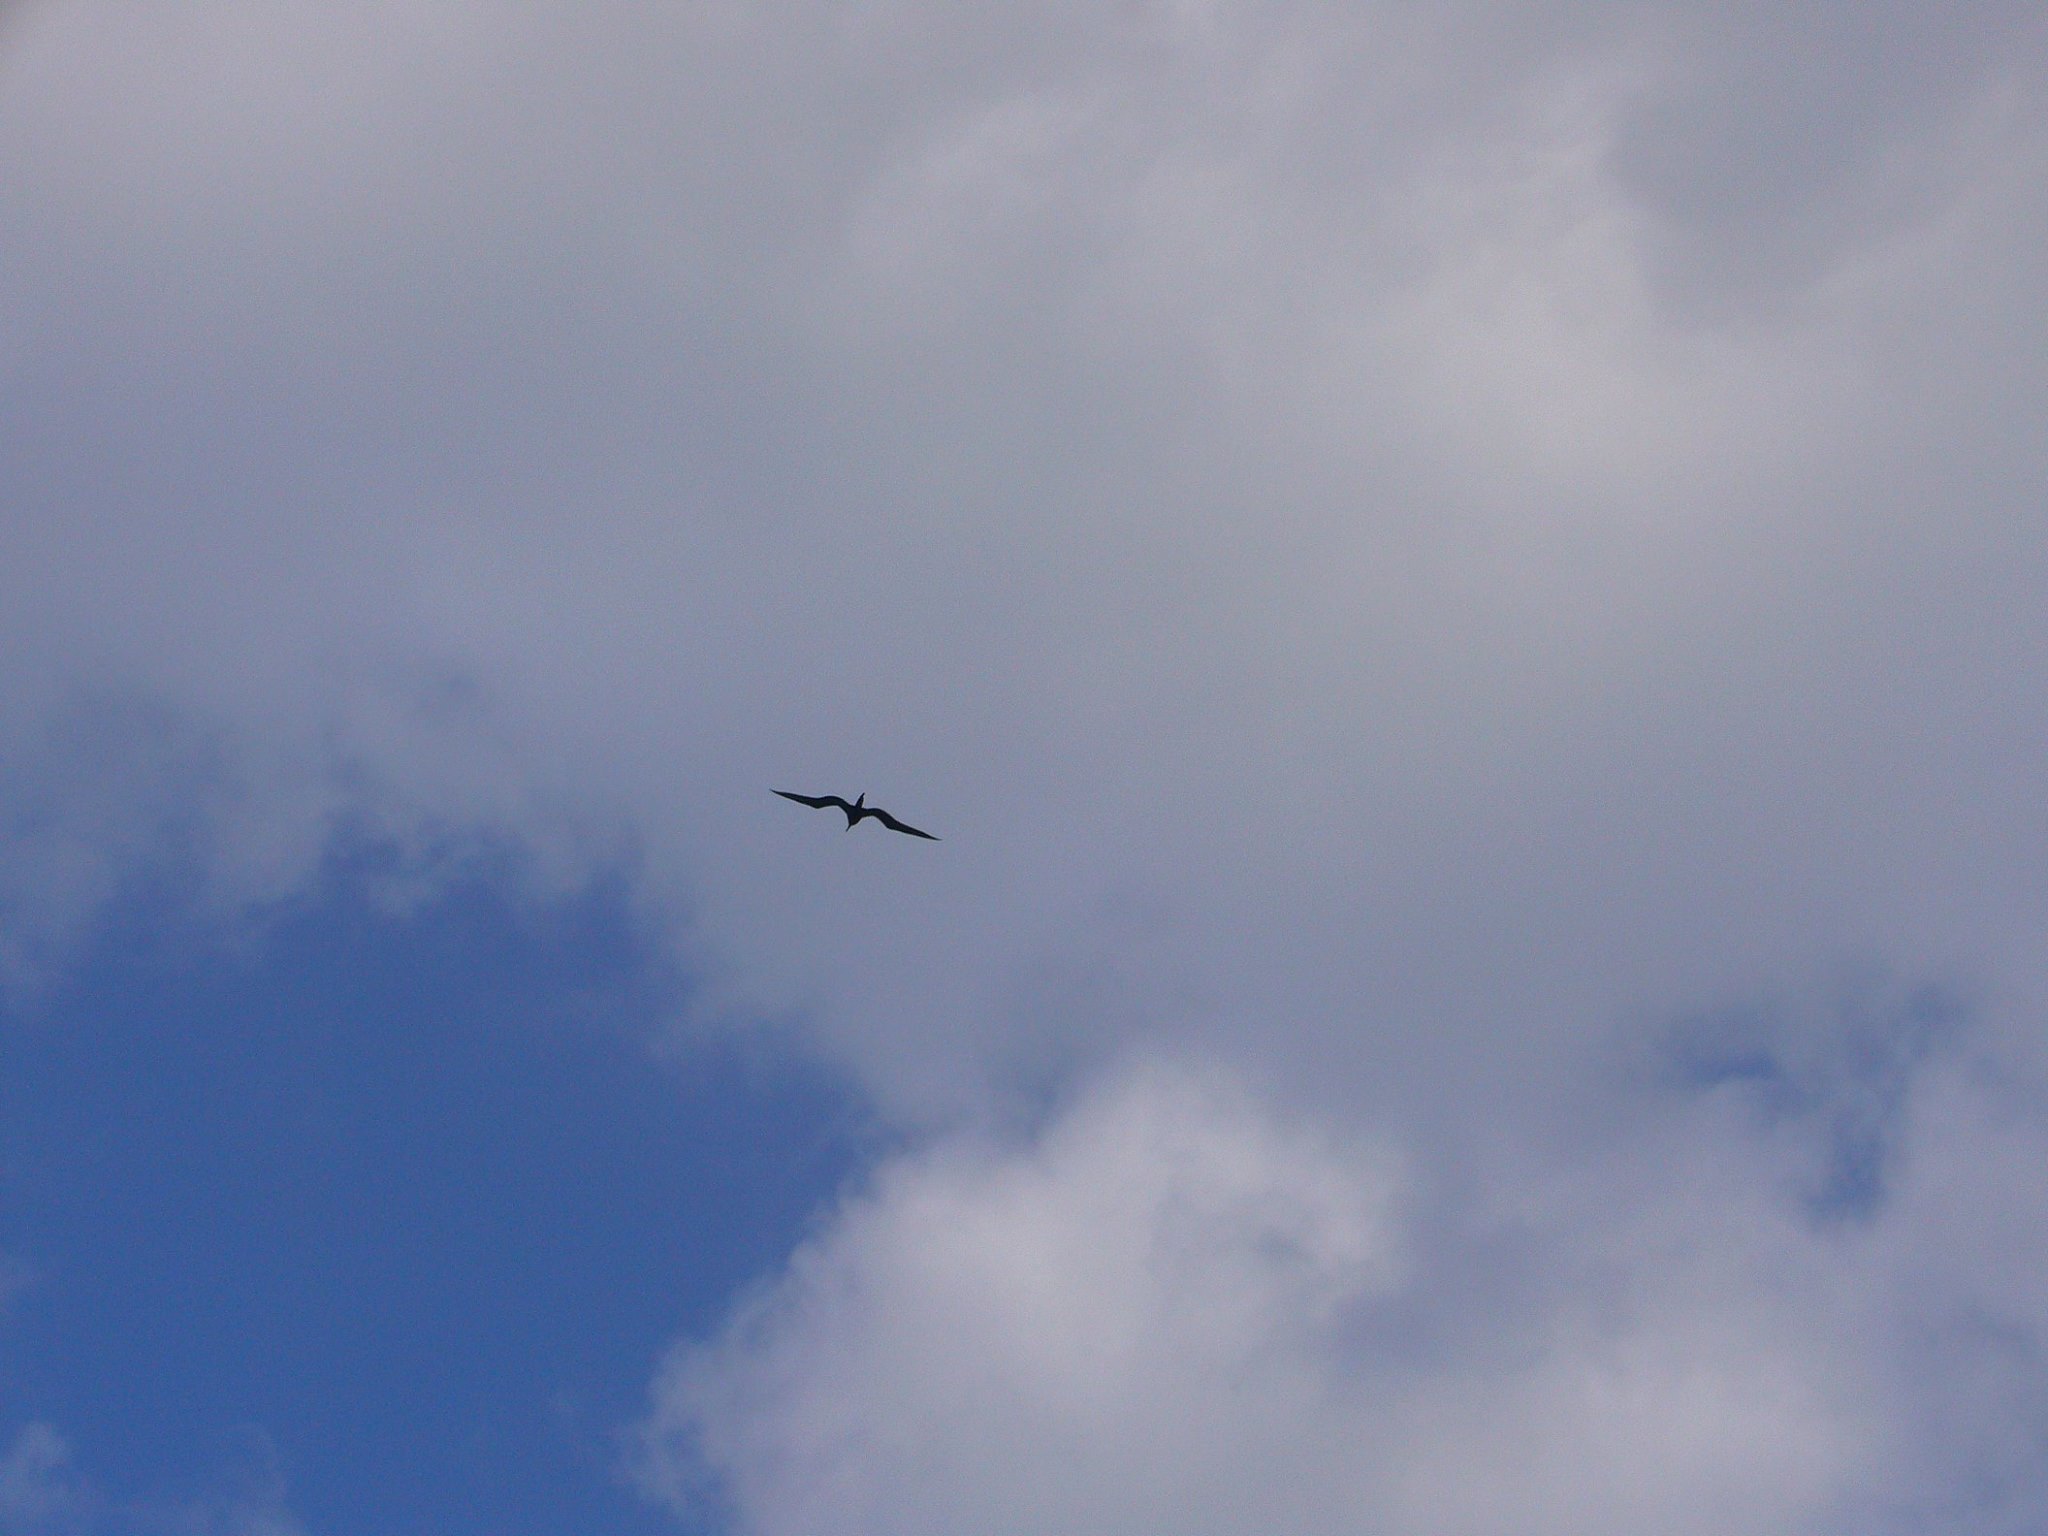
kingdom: Animalia
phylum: Chordata
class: Aves
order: Suliformes
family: Fregatidae
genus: Fregata
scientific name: Fregata magnificens
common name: Magnificent frigatebird
